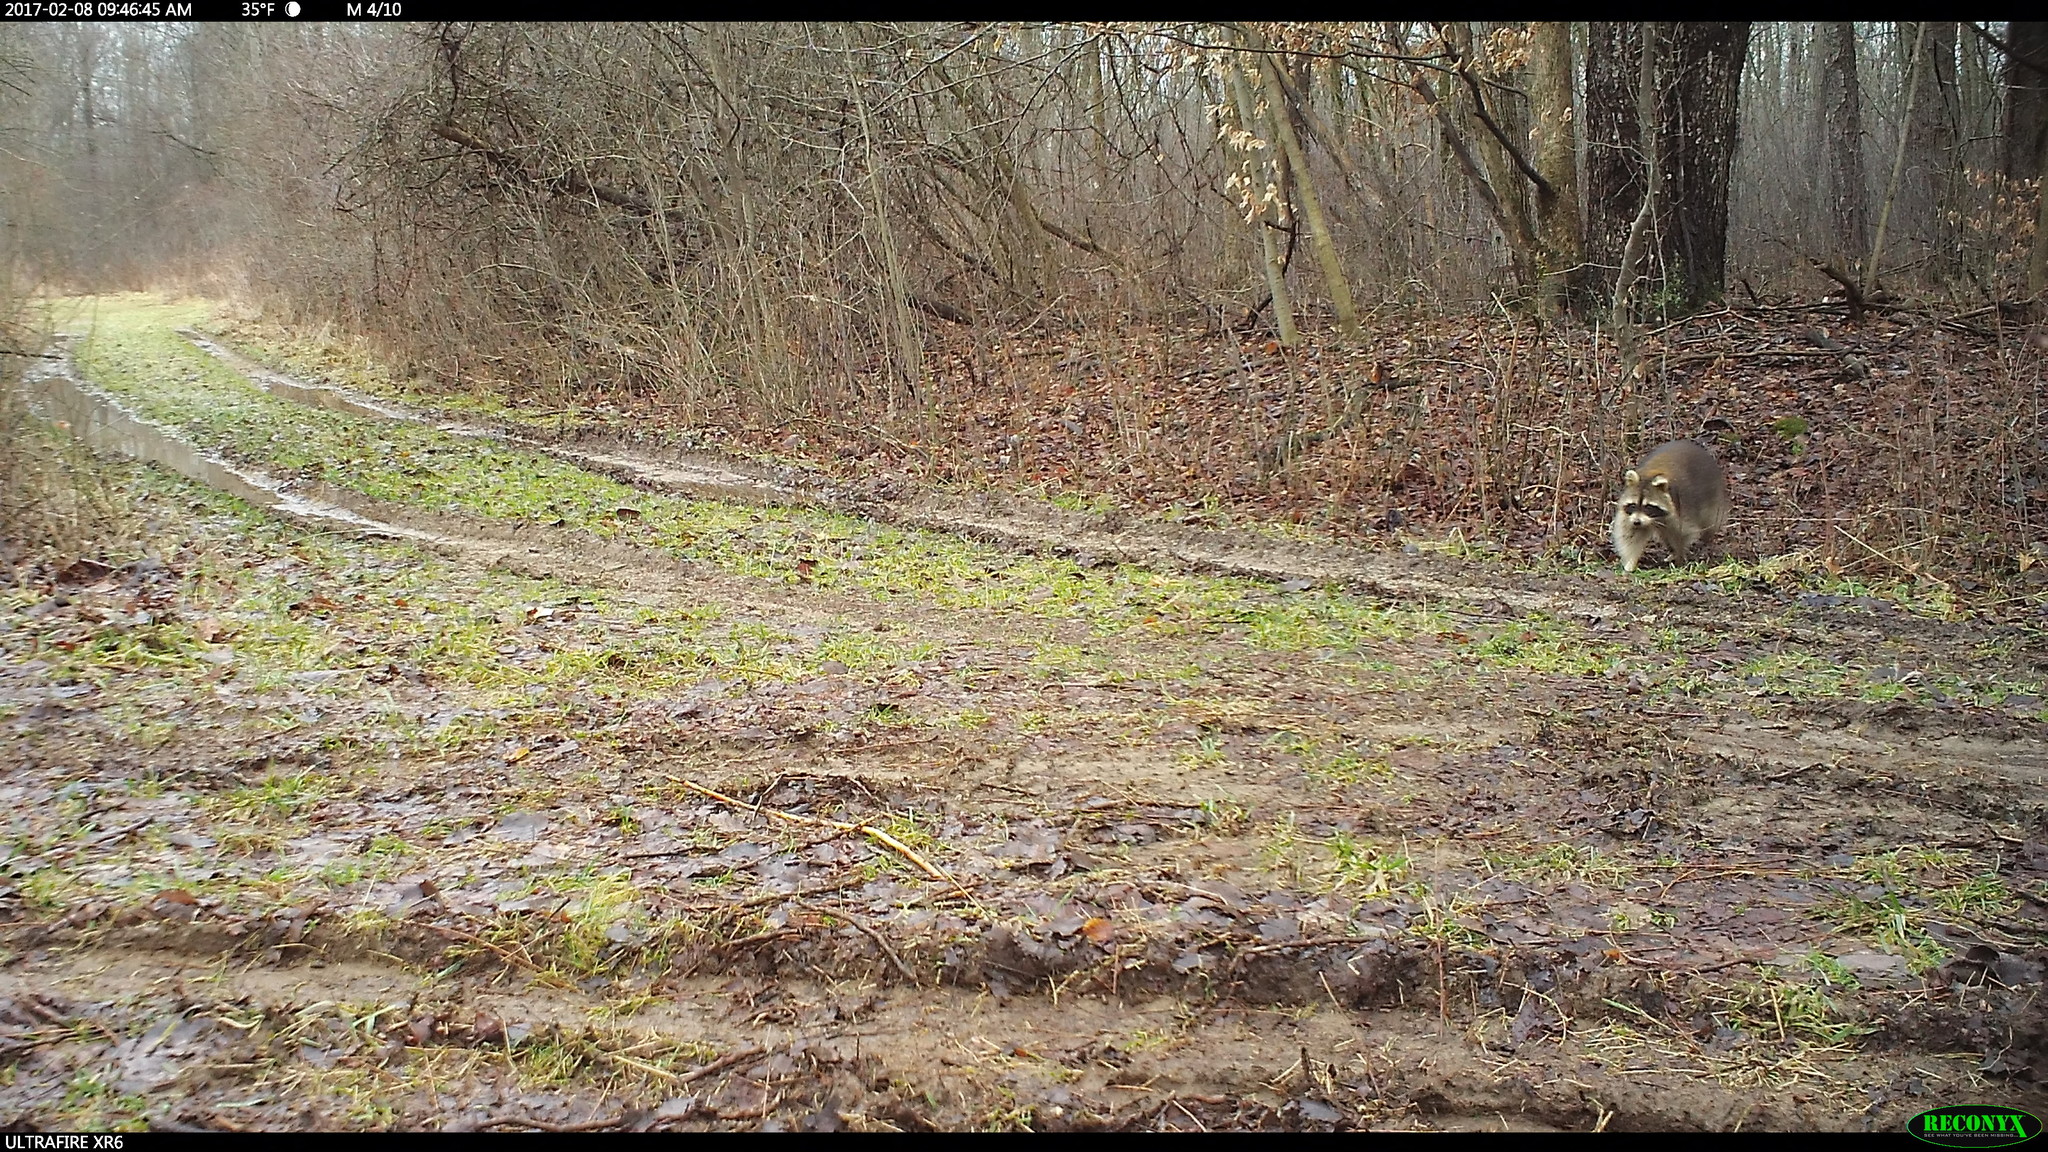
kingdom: Animalia
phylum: Chordata
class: Mammalia
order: Carnivora
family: Procyonidae
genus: Procyon
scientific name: Procyon lotor
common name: Raccoon
